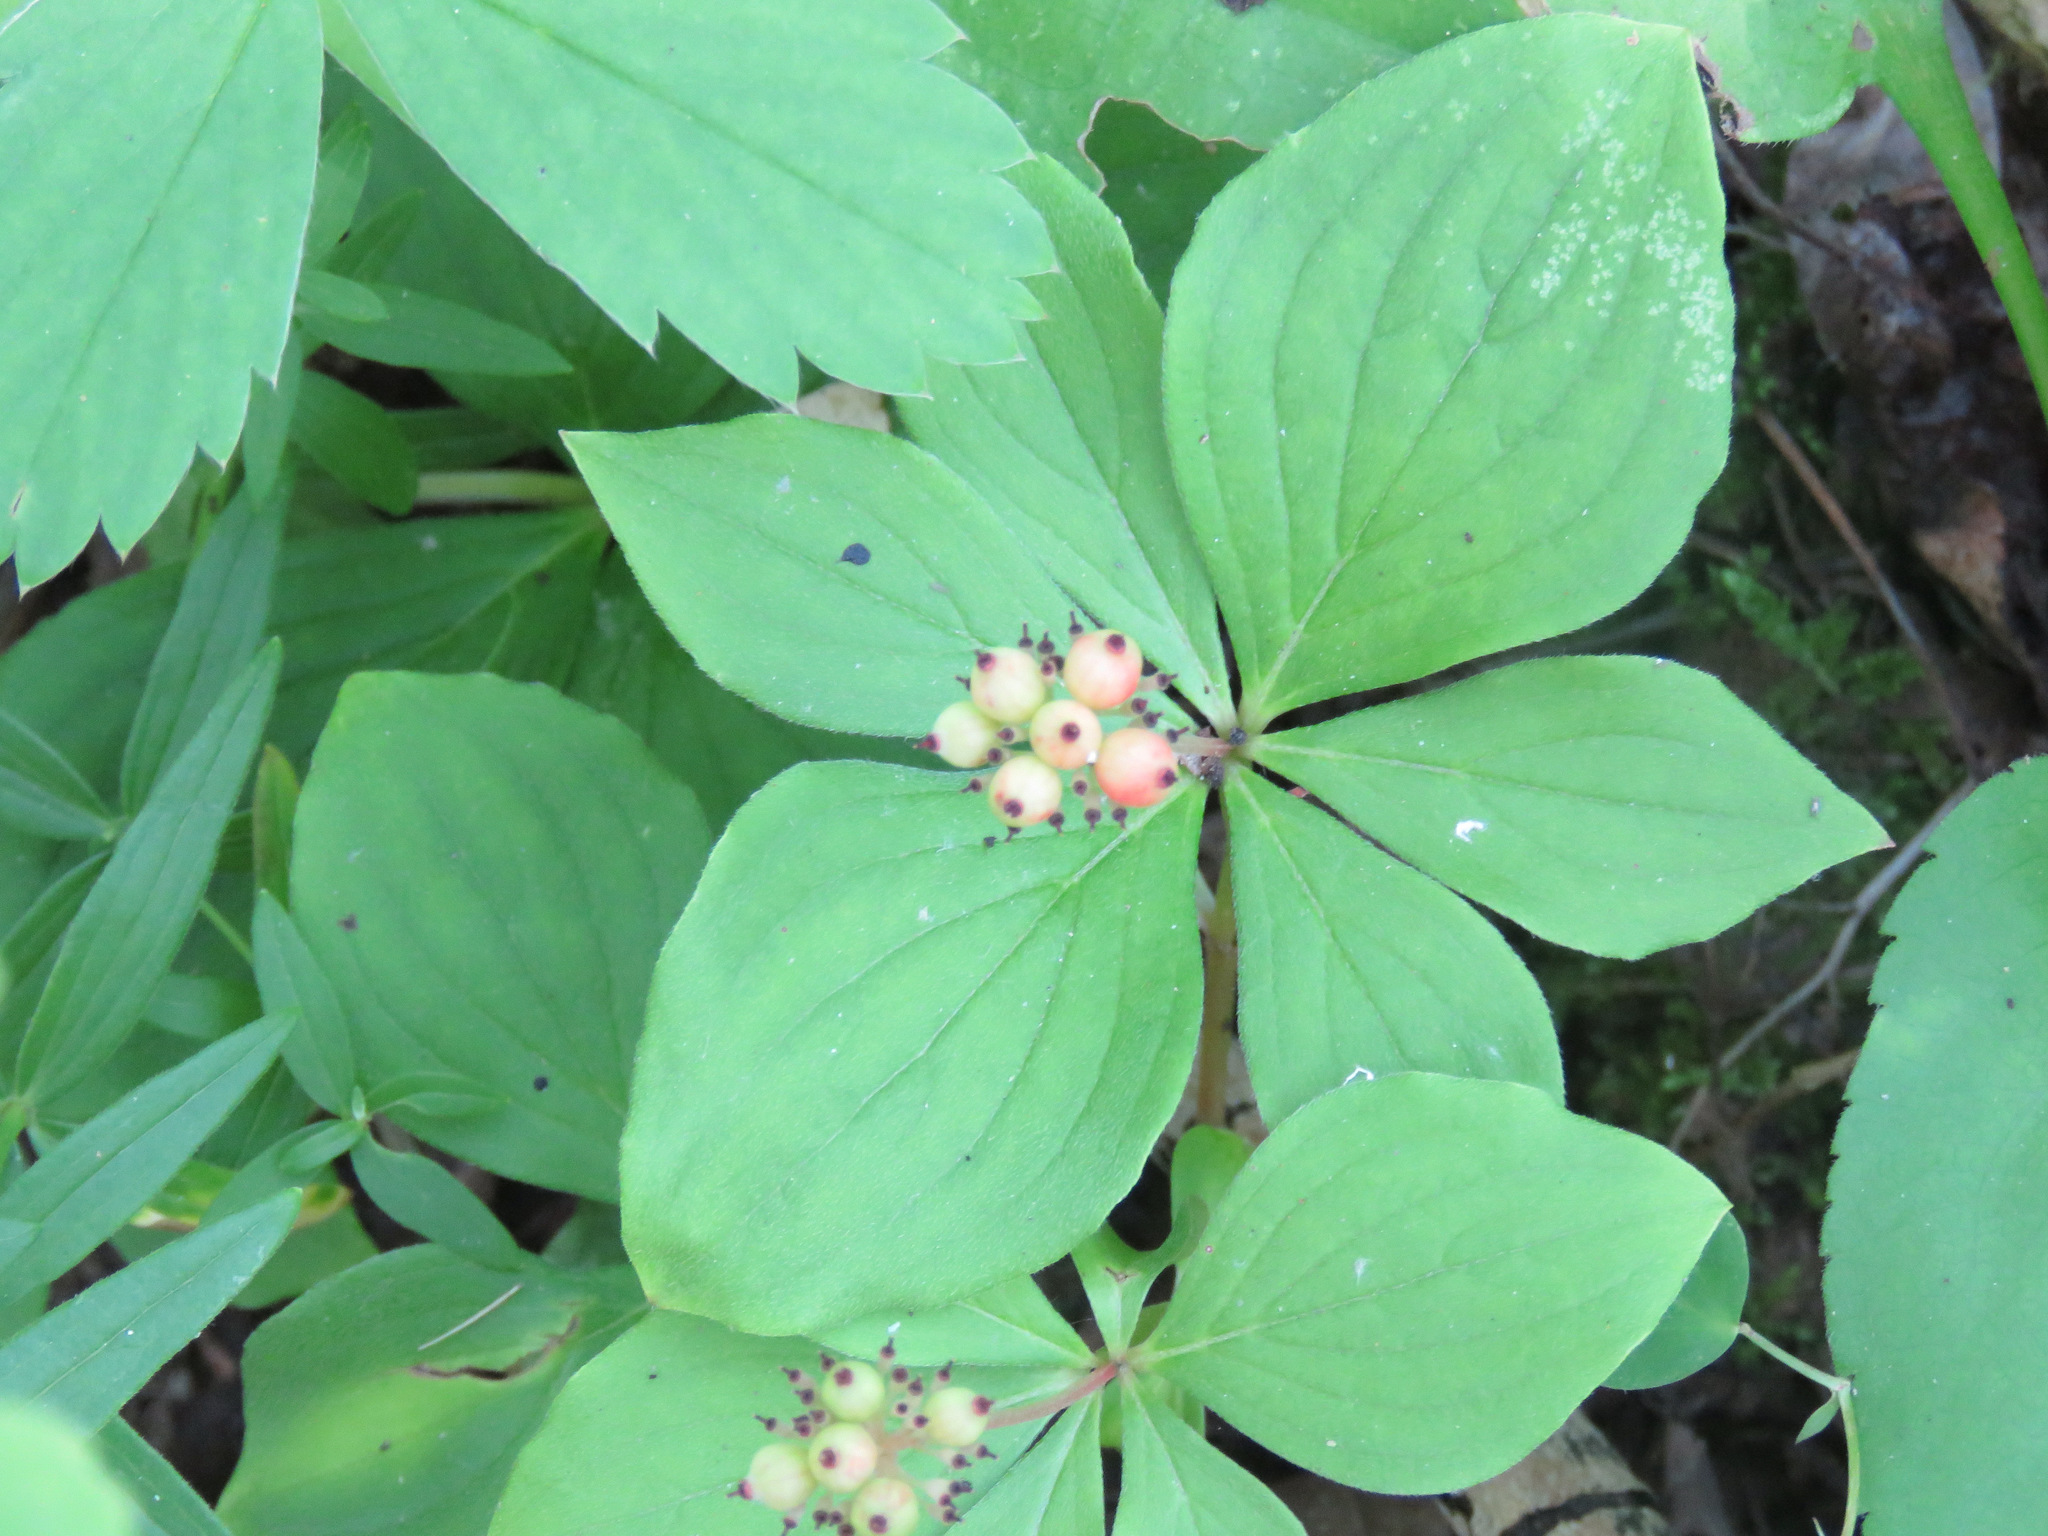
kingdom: Plantae
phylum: Tracheophyta
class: Magnoliopsida
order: Cornales
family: Cornaceae
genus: Cornus
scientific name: Cornus canadensis
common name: Creeping dogwood
